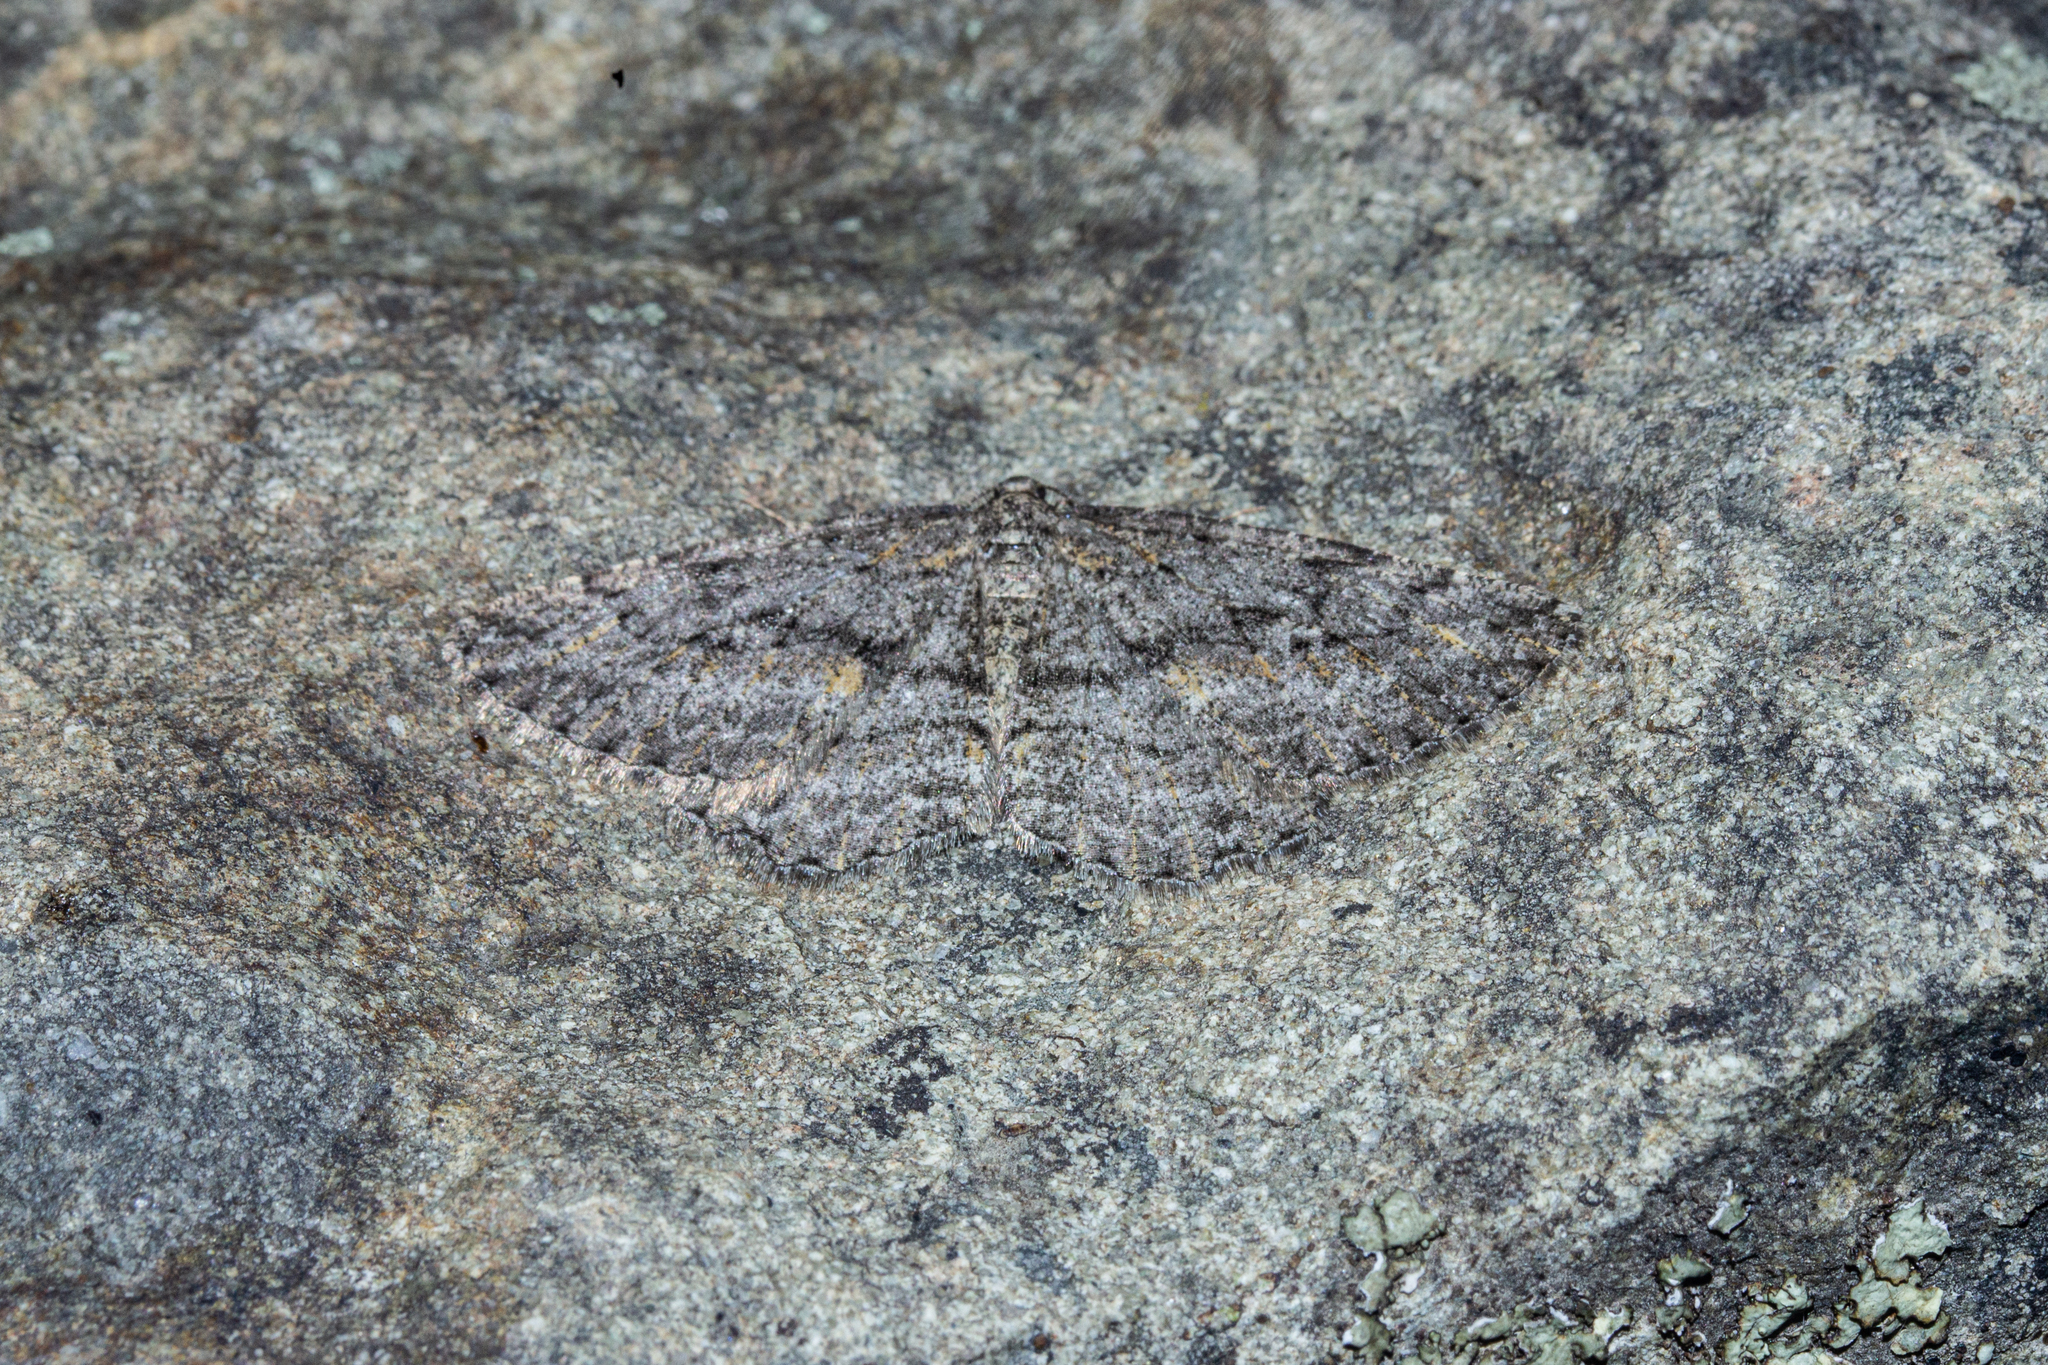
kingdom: Animalia
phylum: Arthropoda
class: Insecta
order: Lepidoptera
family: Geometridae
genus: Zermizinga
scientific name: Zermizinga indocilisaria
